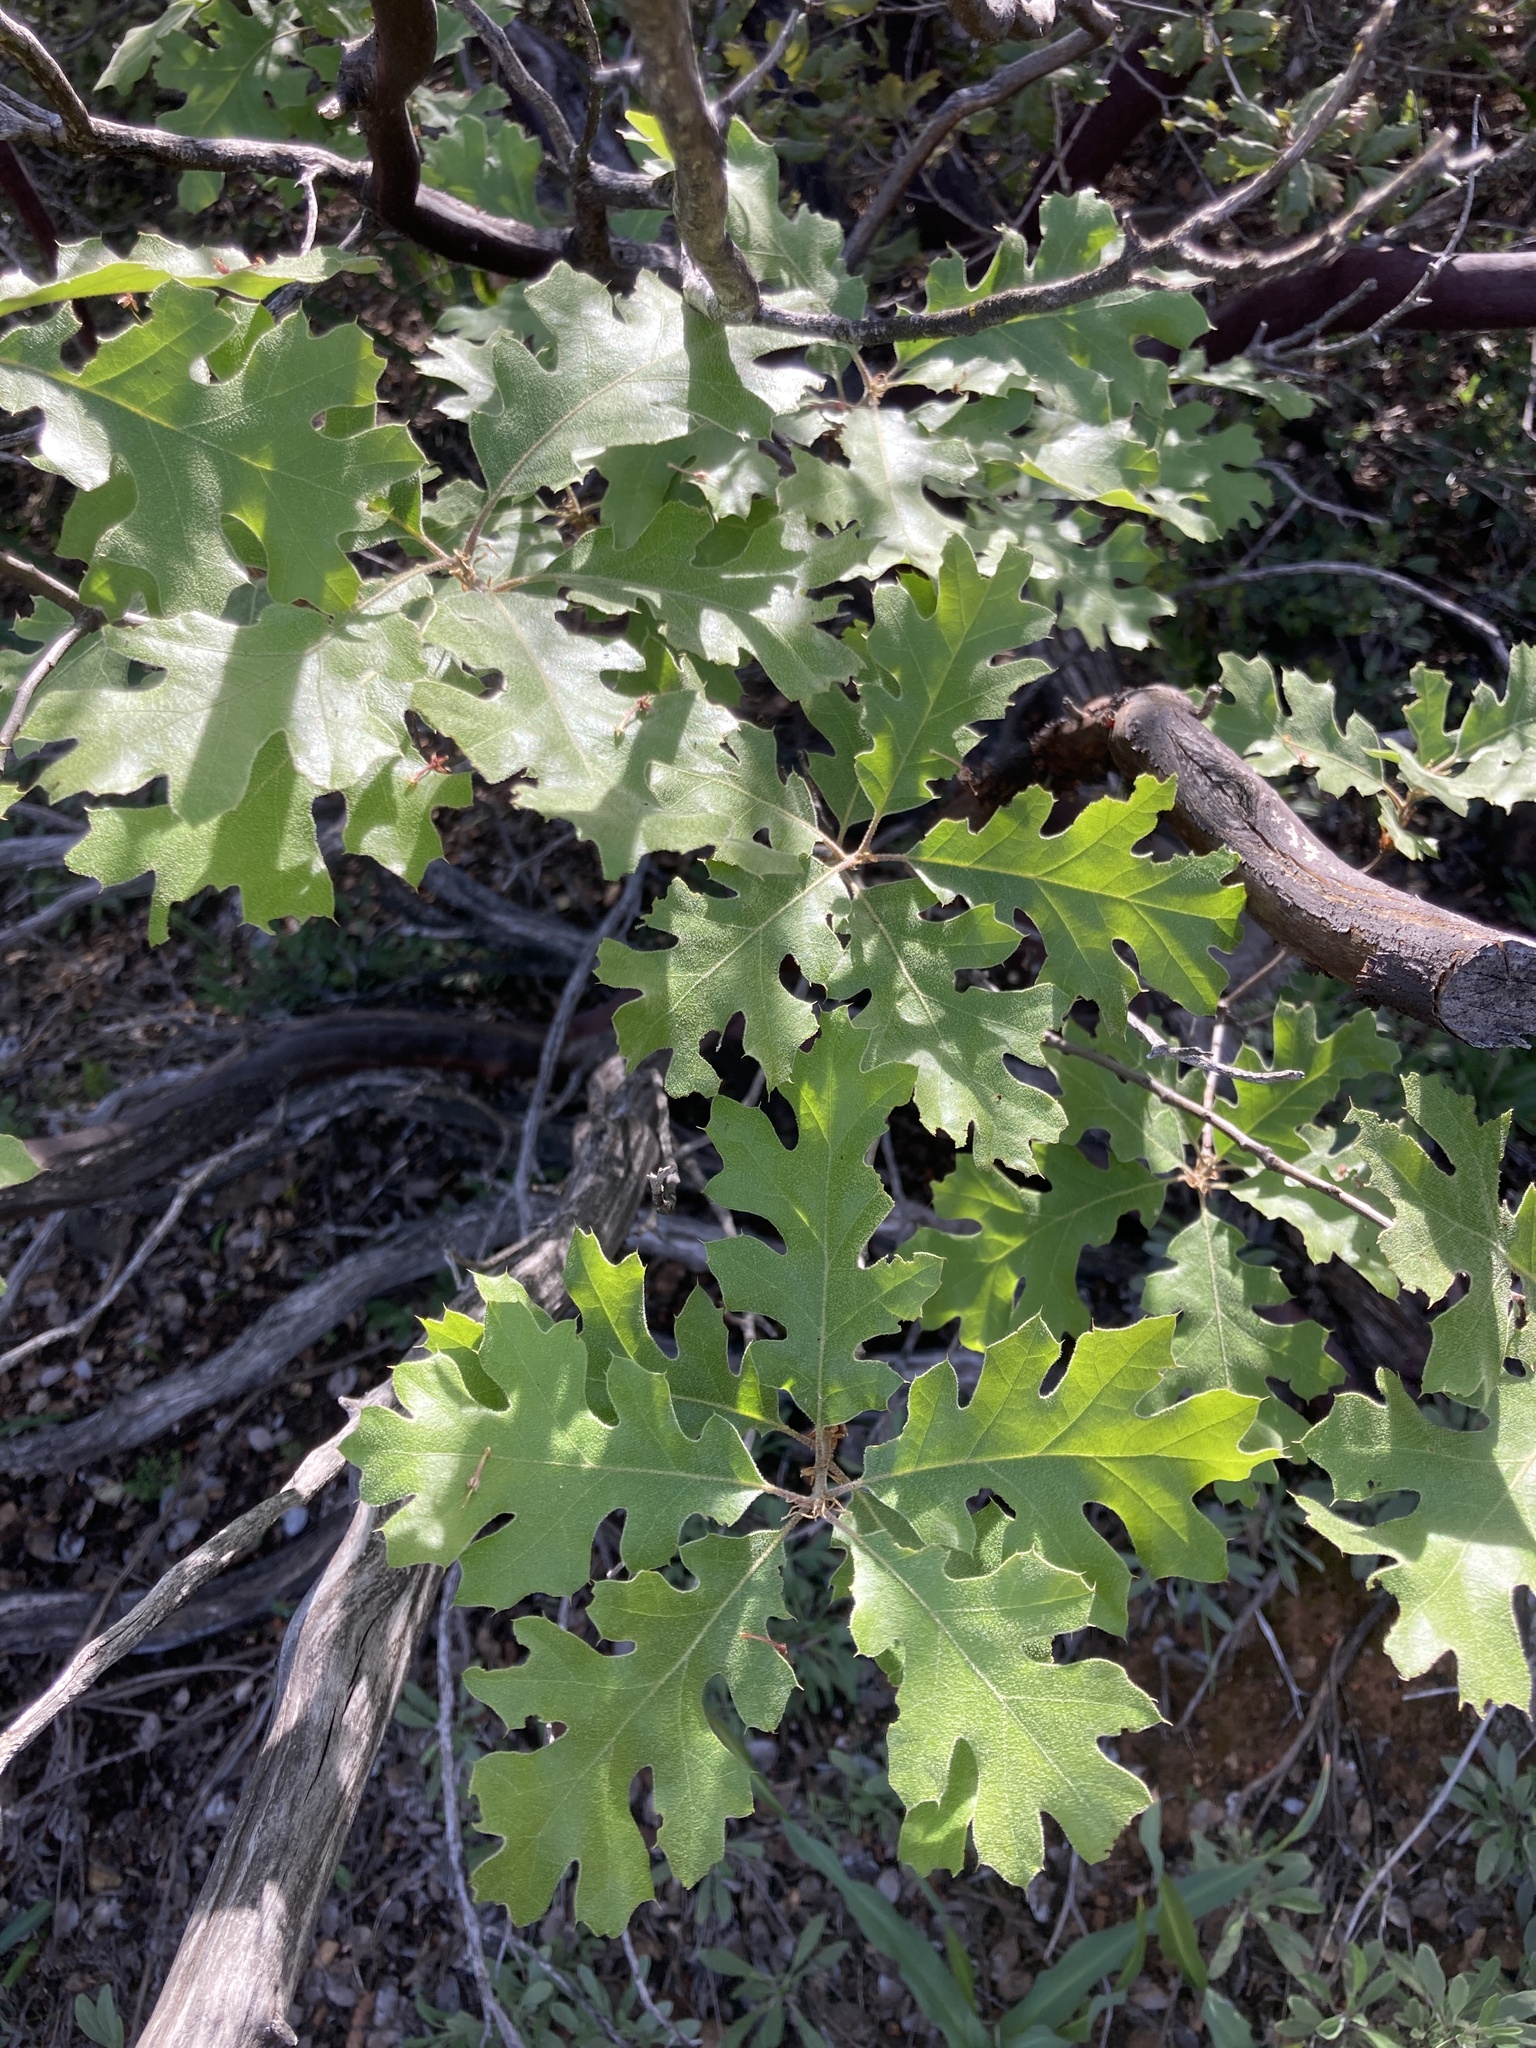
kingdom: Plantae
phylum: Tracheophyta
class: Magnoliopsida
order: Fagales
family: Fagaceae
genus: Quercus
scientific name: Quercus kelloggii
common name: California black oak
